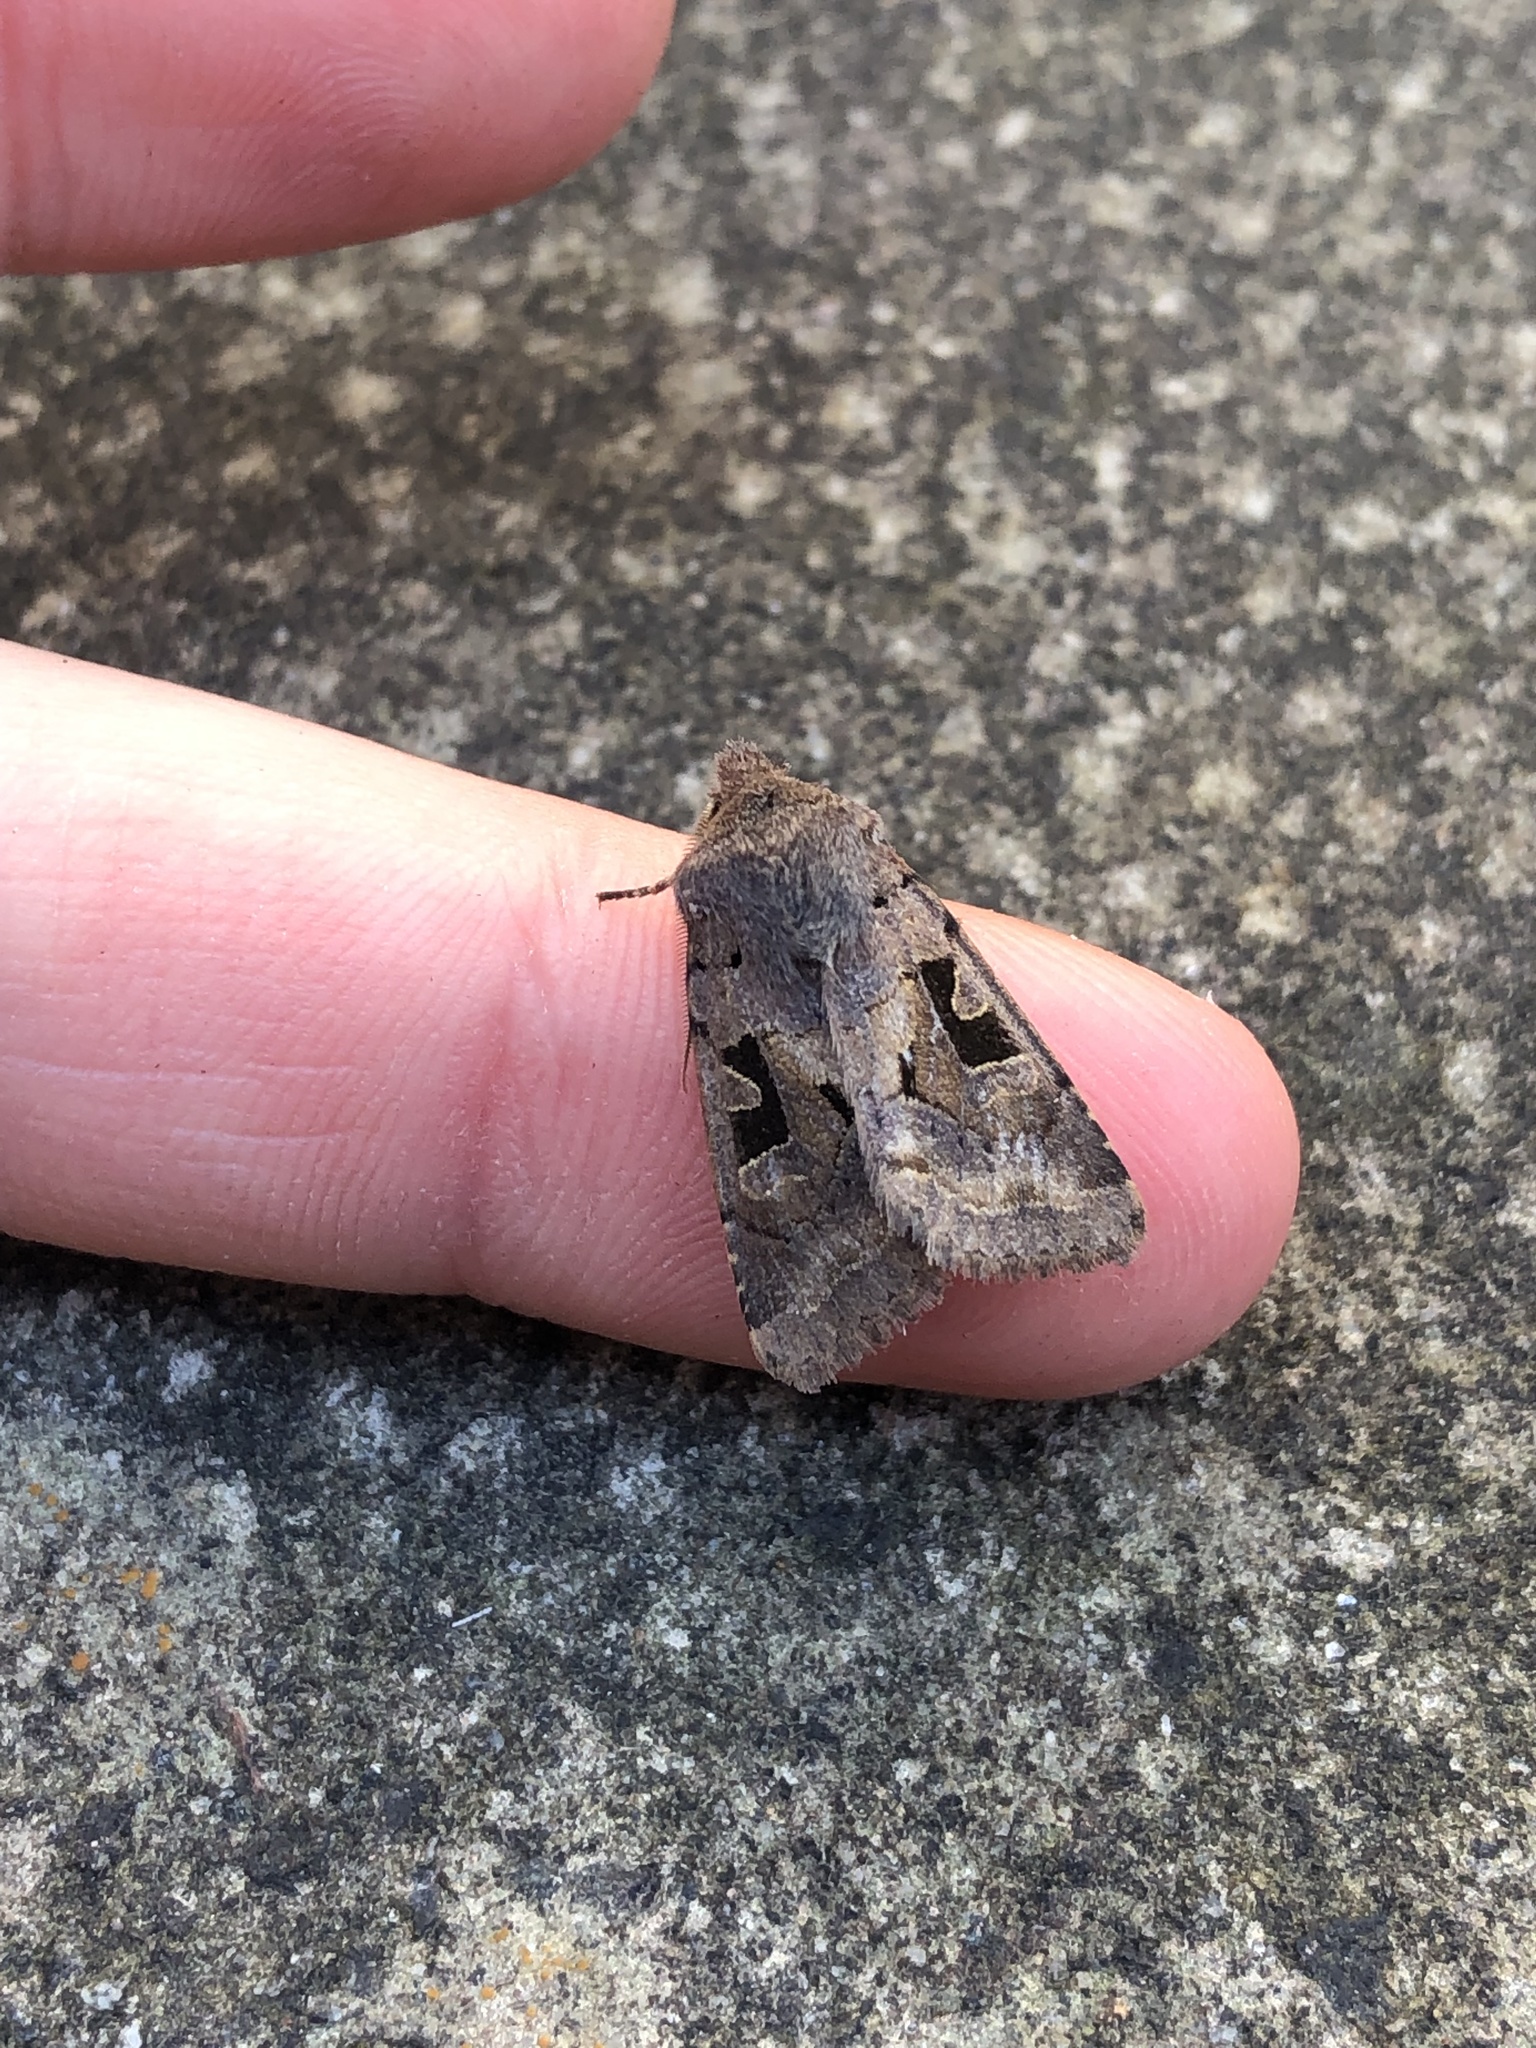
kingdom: Animalia
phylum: Arthropoda
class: Insecta
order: Lepidoptera
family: Noctuidae
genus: Orthosia
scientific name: Orthosia gothica
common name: Hebrew character
